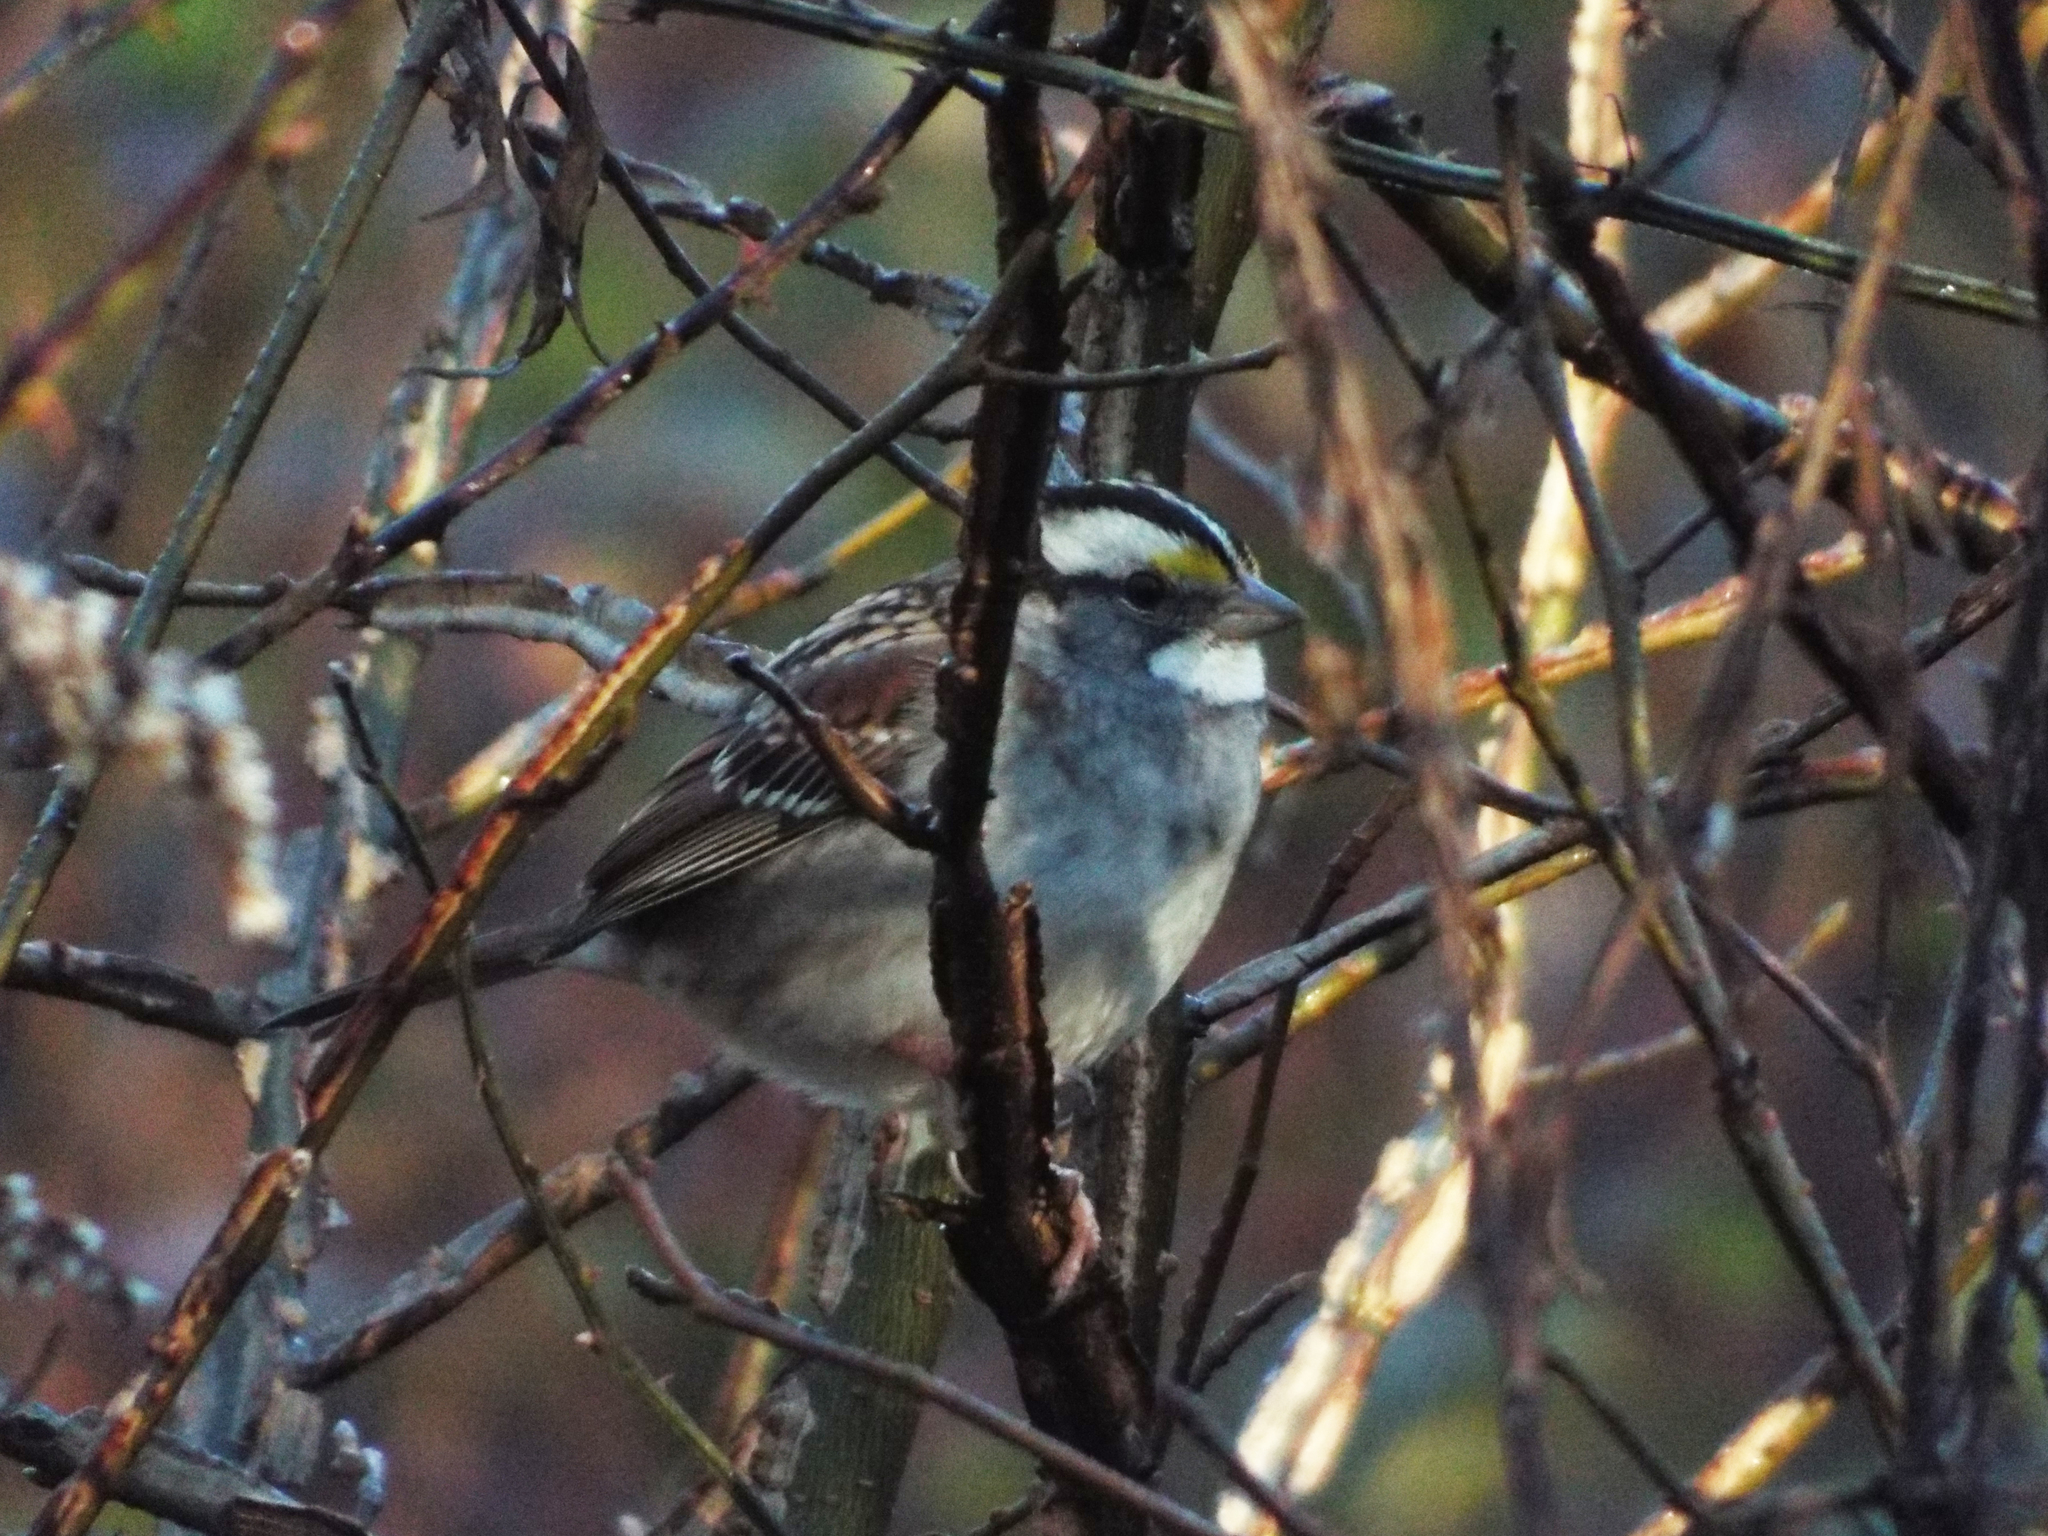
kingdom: Animalia
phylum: Chordata
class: Aves
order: Passeriformes
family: Passerellidae
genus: Zonotrichia
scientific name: Zonotrichia albicollis
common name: White-throated sparrow
